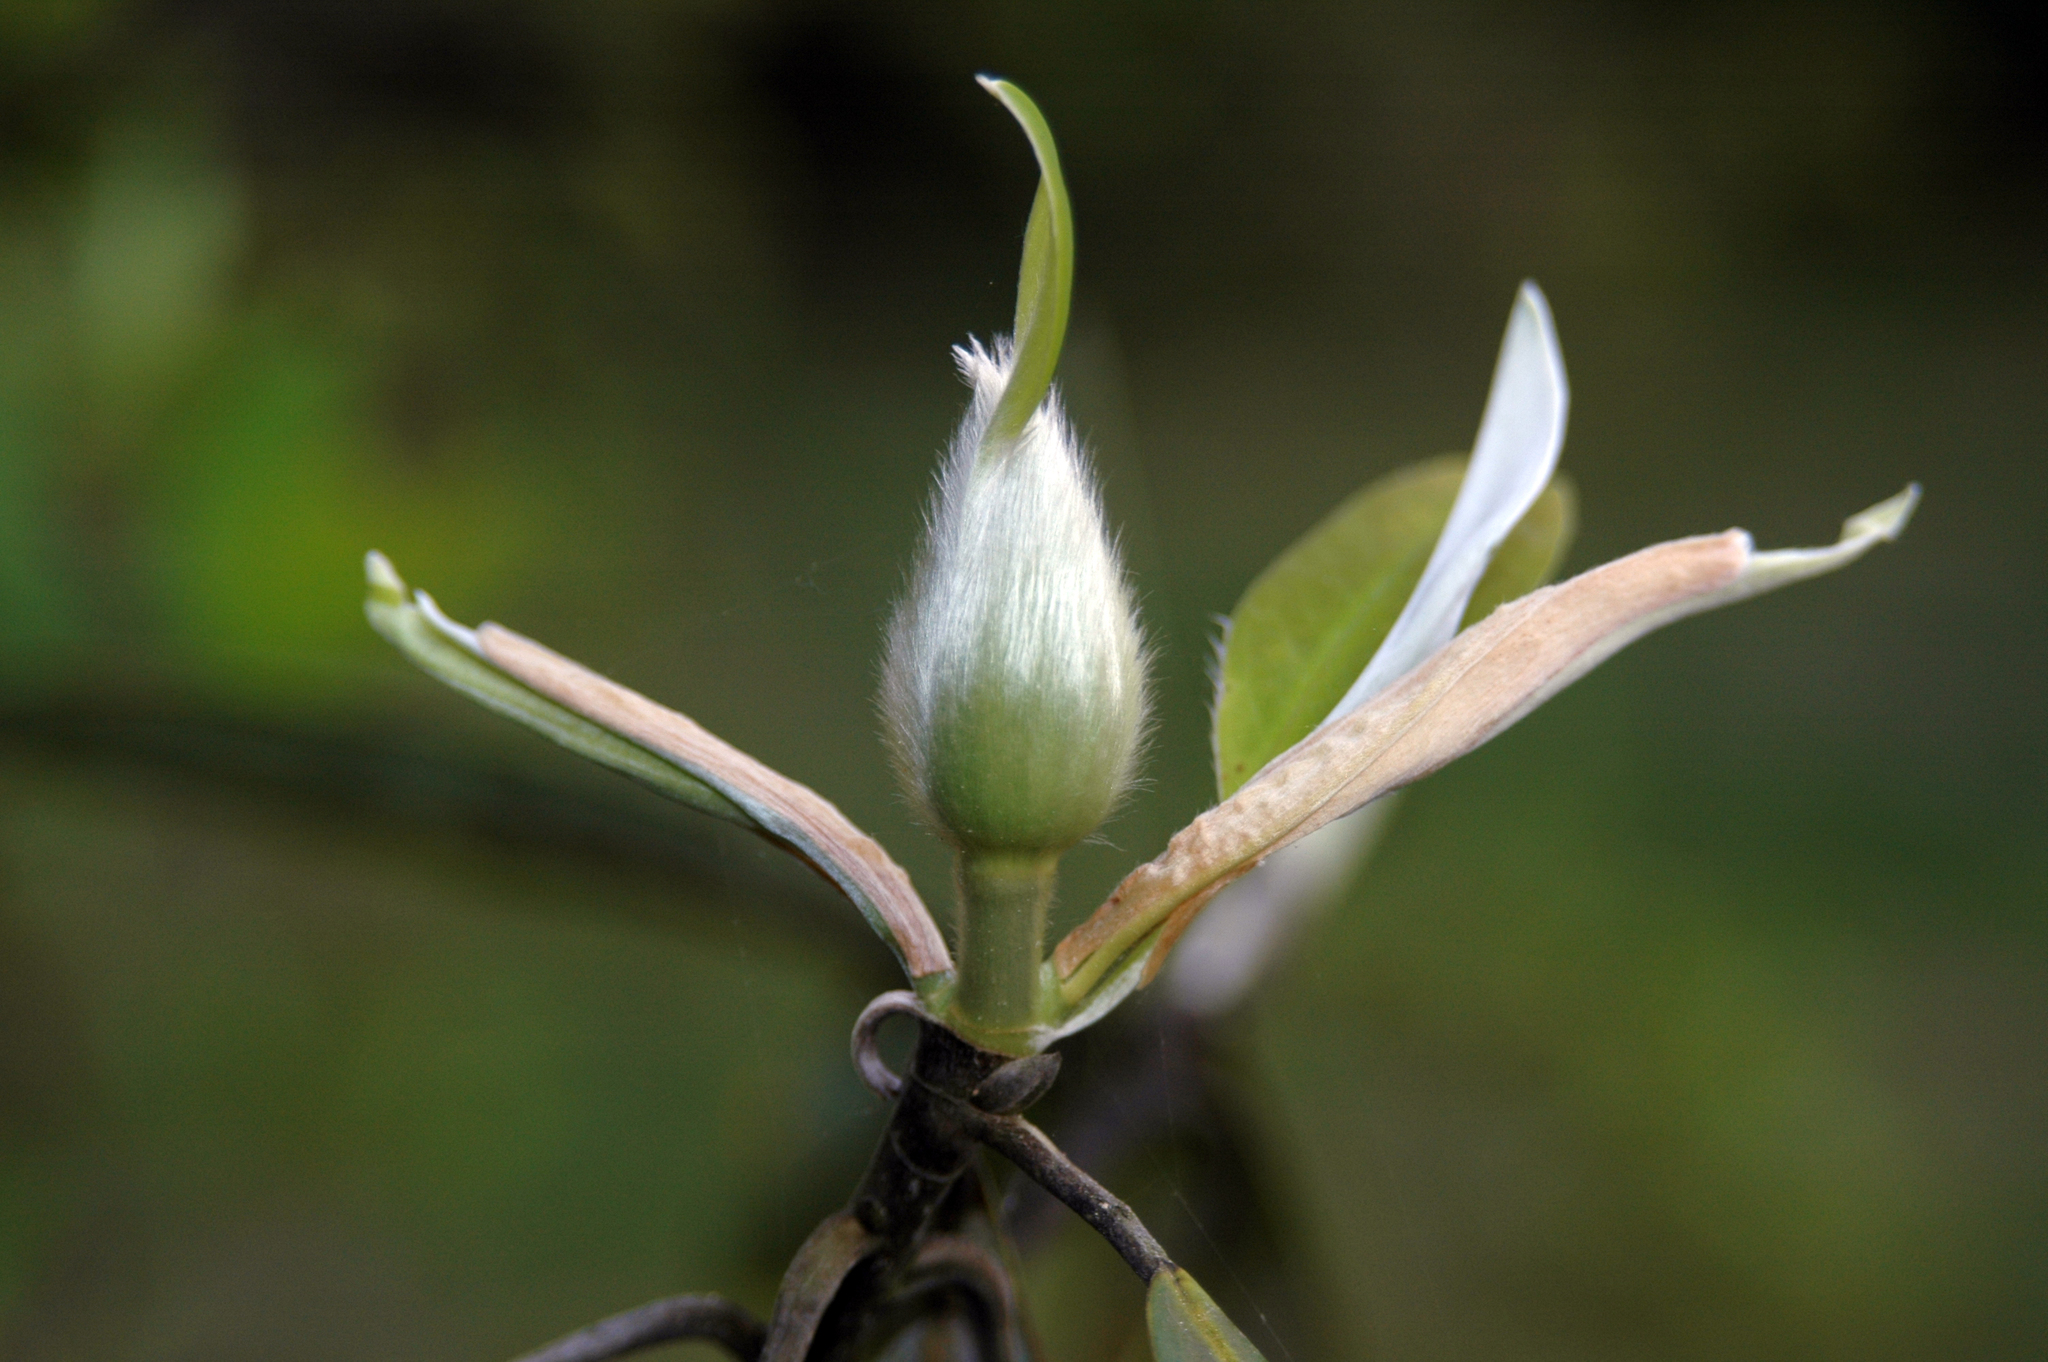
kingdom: Plantae
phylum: Tracheophyta
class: Magnoliopsida
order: Magnoliales
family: Magnoliaceae
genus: Magnolia
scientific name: Magnolia virginiana
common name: Swamp bay
